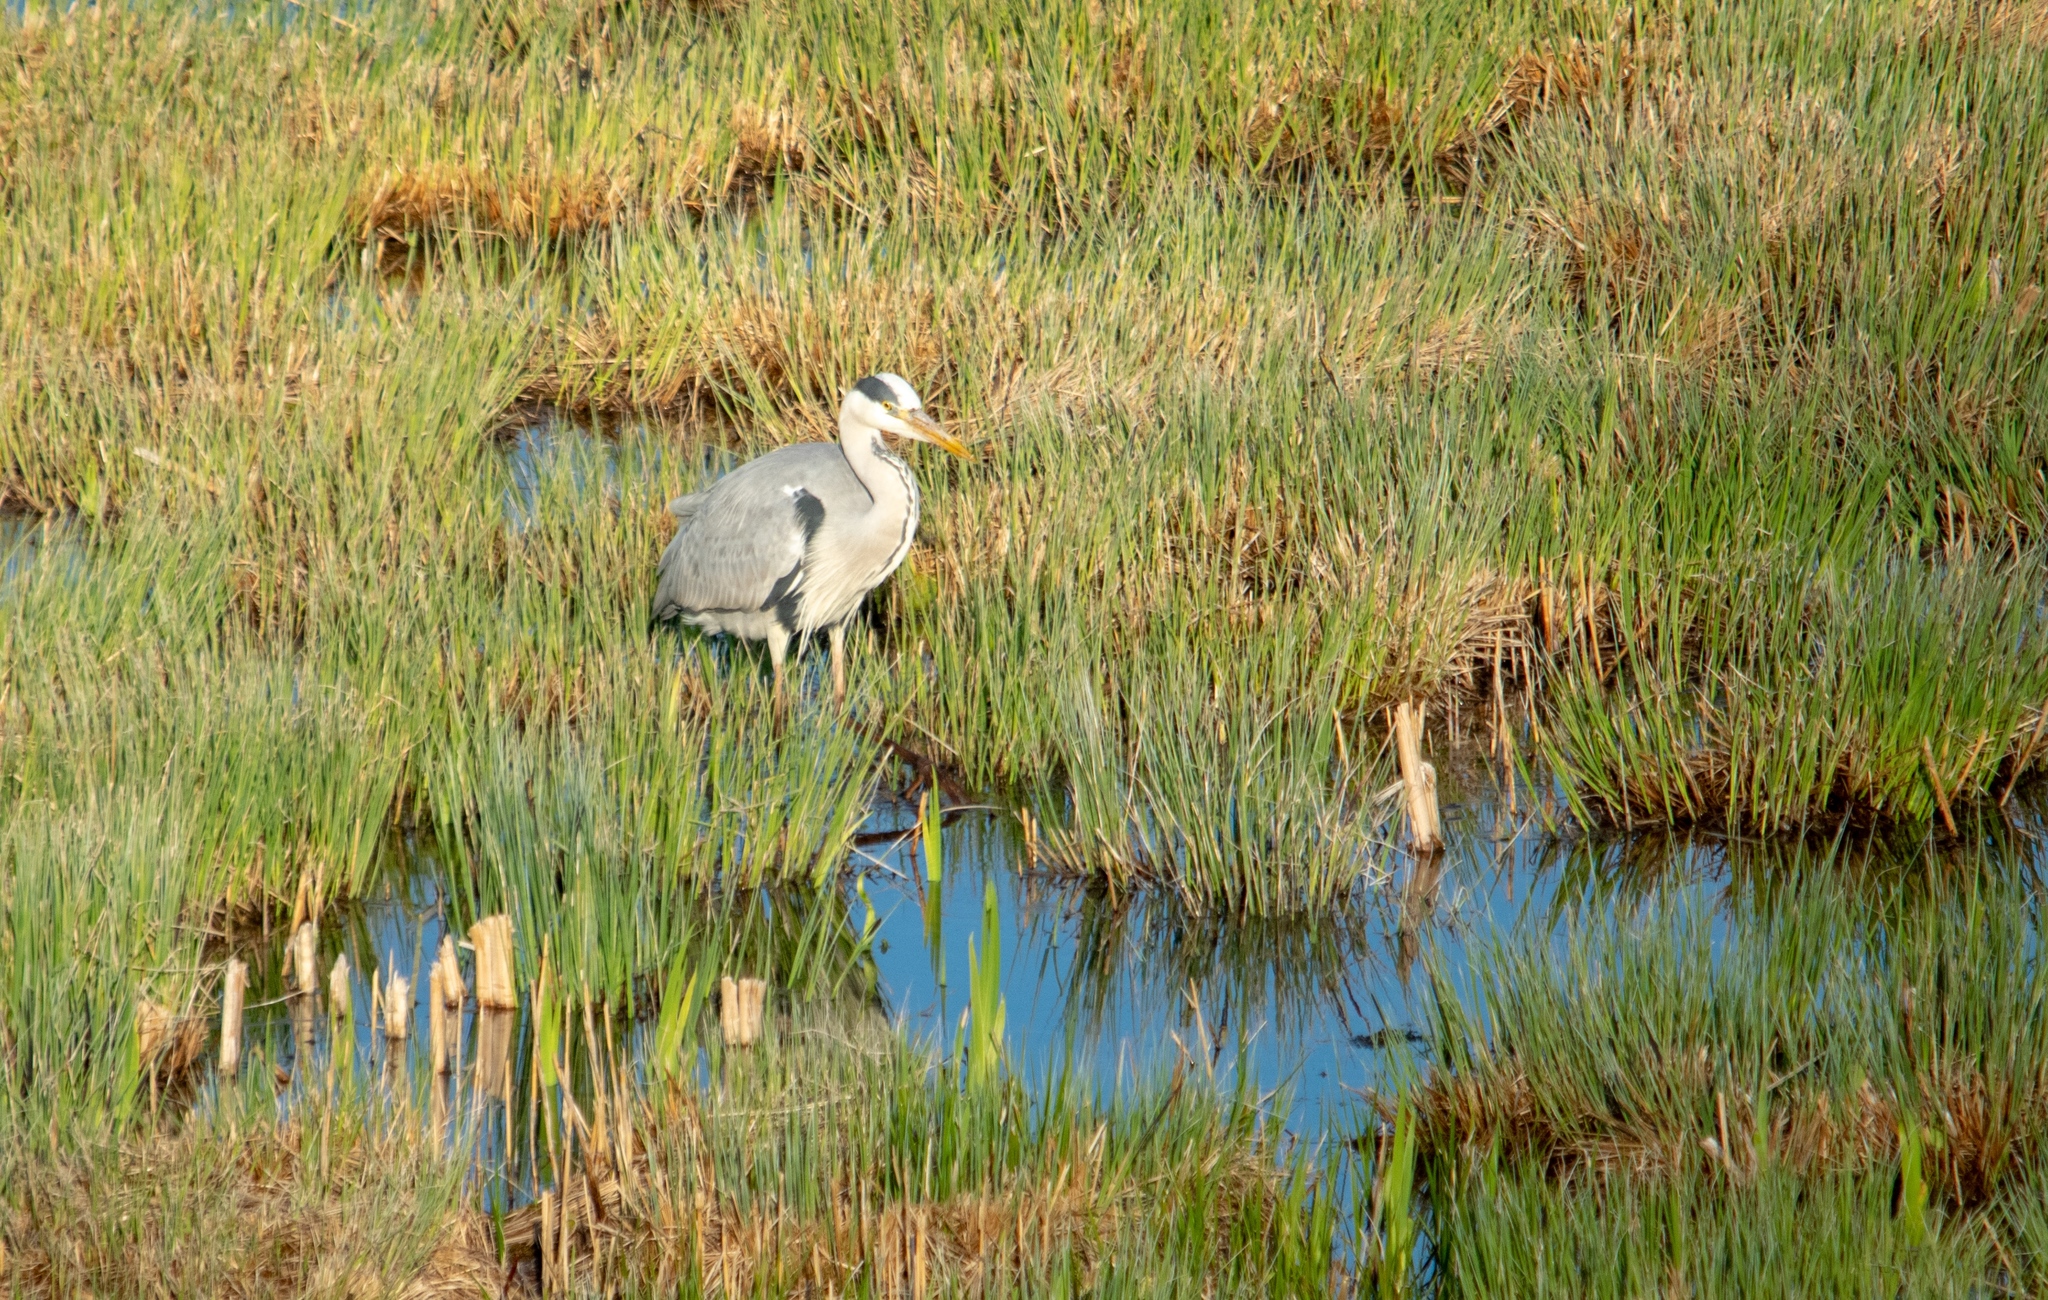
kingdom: Animalia
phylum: Chordata
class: Aves
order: Pelecaniformes
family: Ardeidae
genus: Ardea
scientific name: Ardea cinerea
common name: Grey heron
